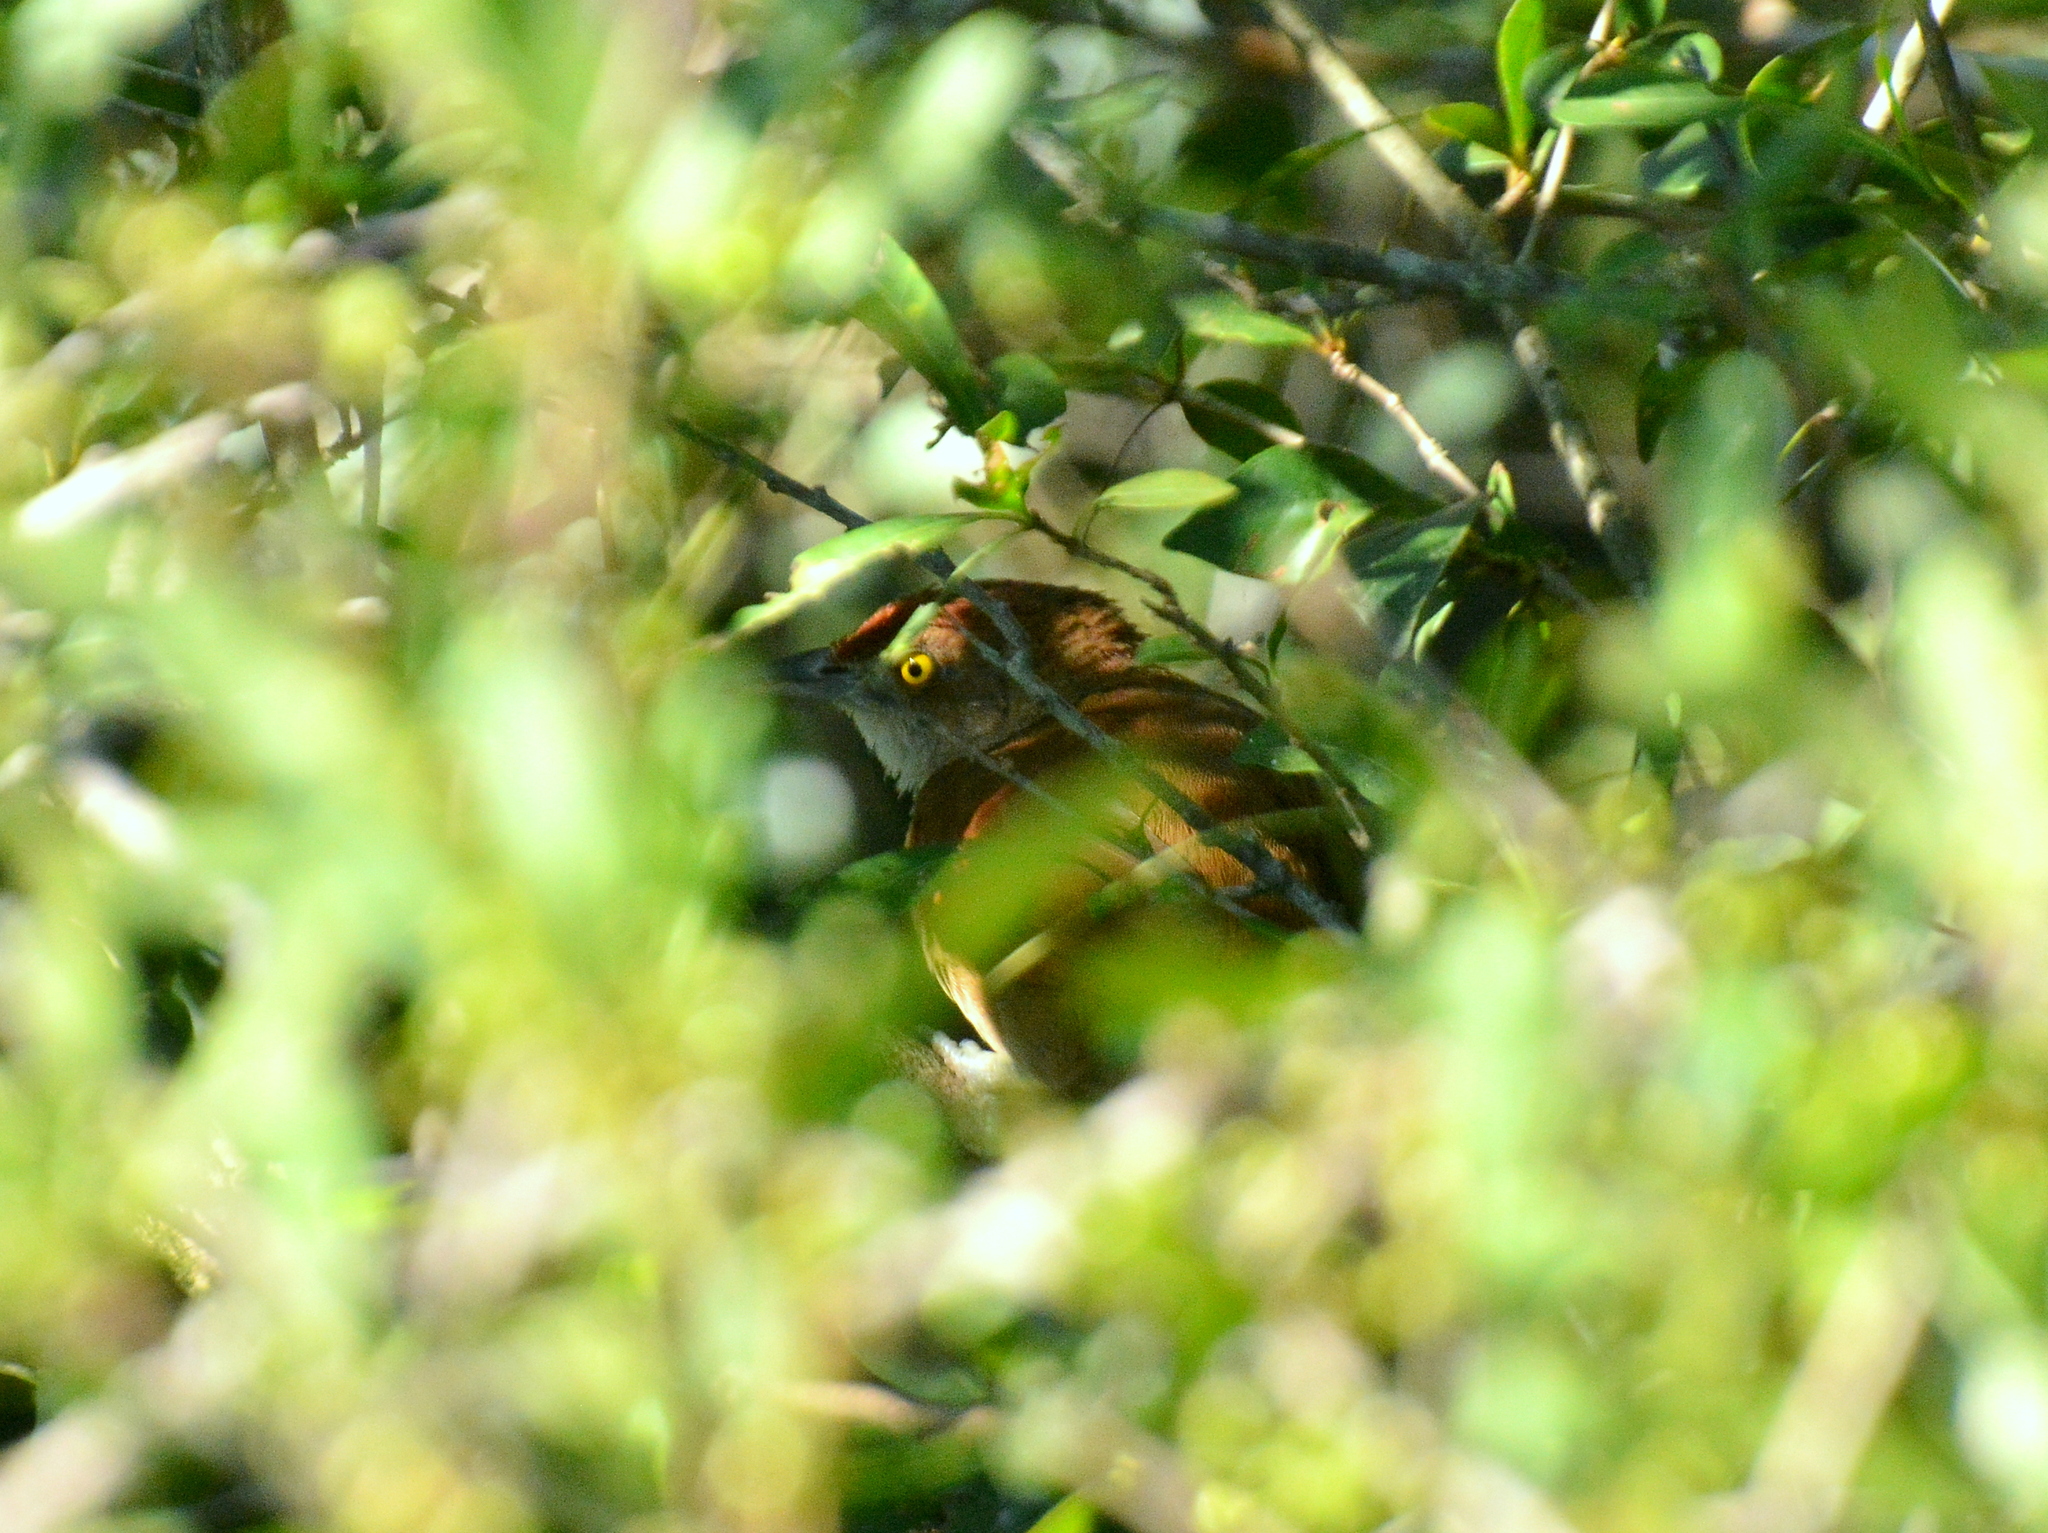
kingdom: Animalia
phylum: Chordata
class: Aves
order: Passeriformes
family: Furnariidae
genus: Phacellodomus
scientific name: Phacellodomus ruber
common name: Greater thornbird
